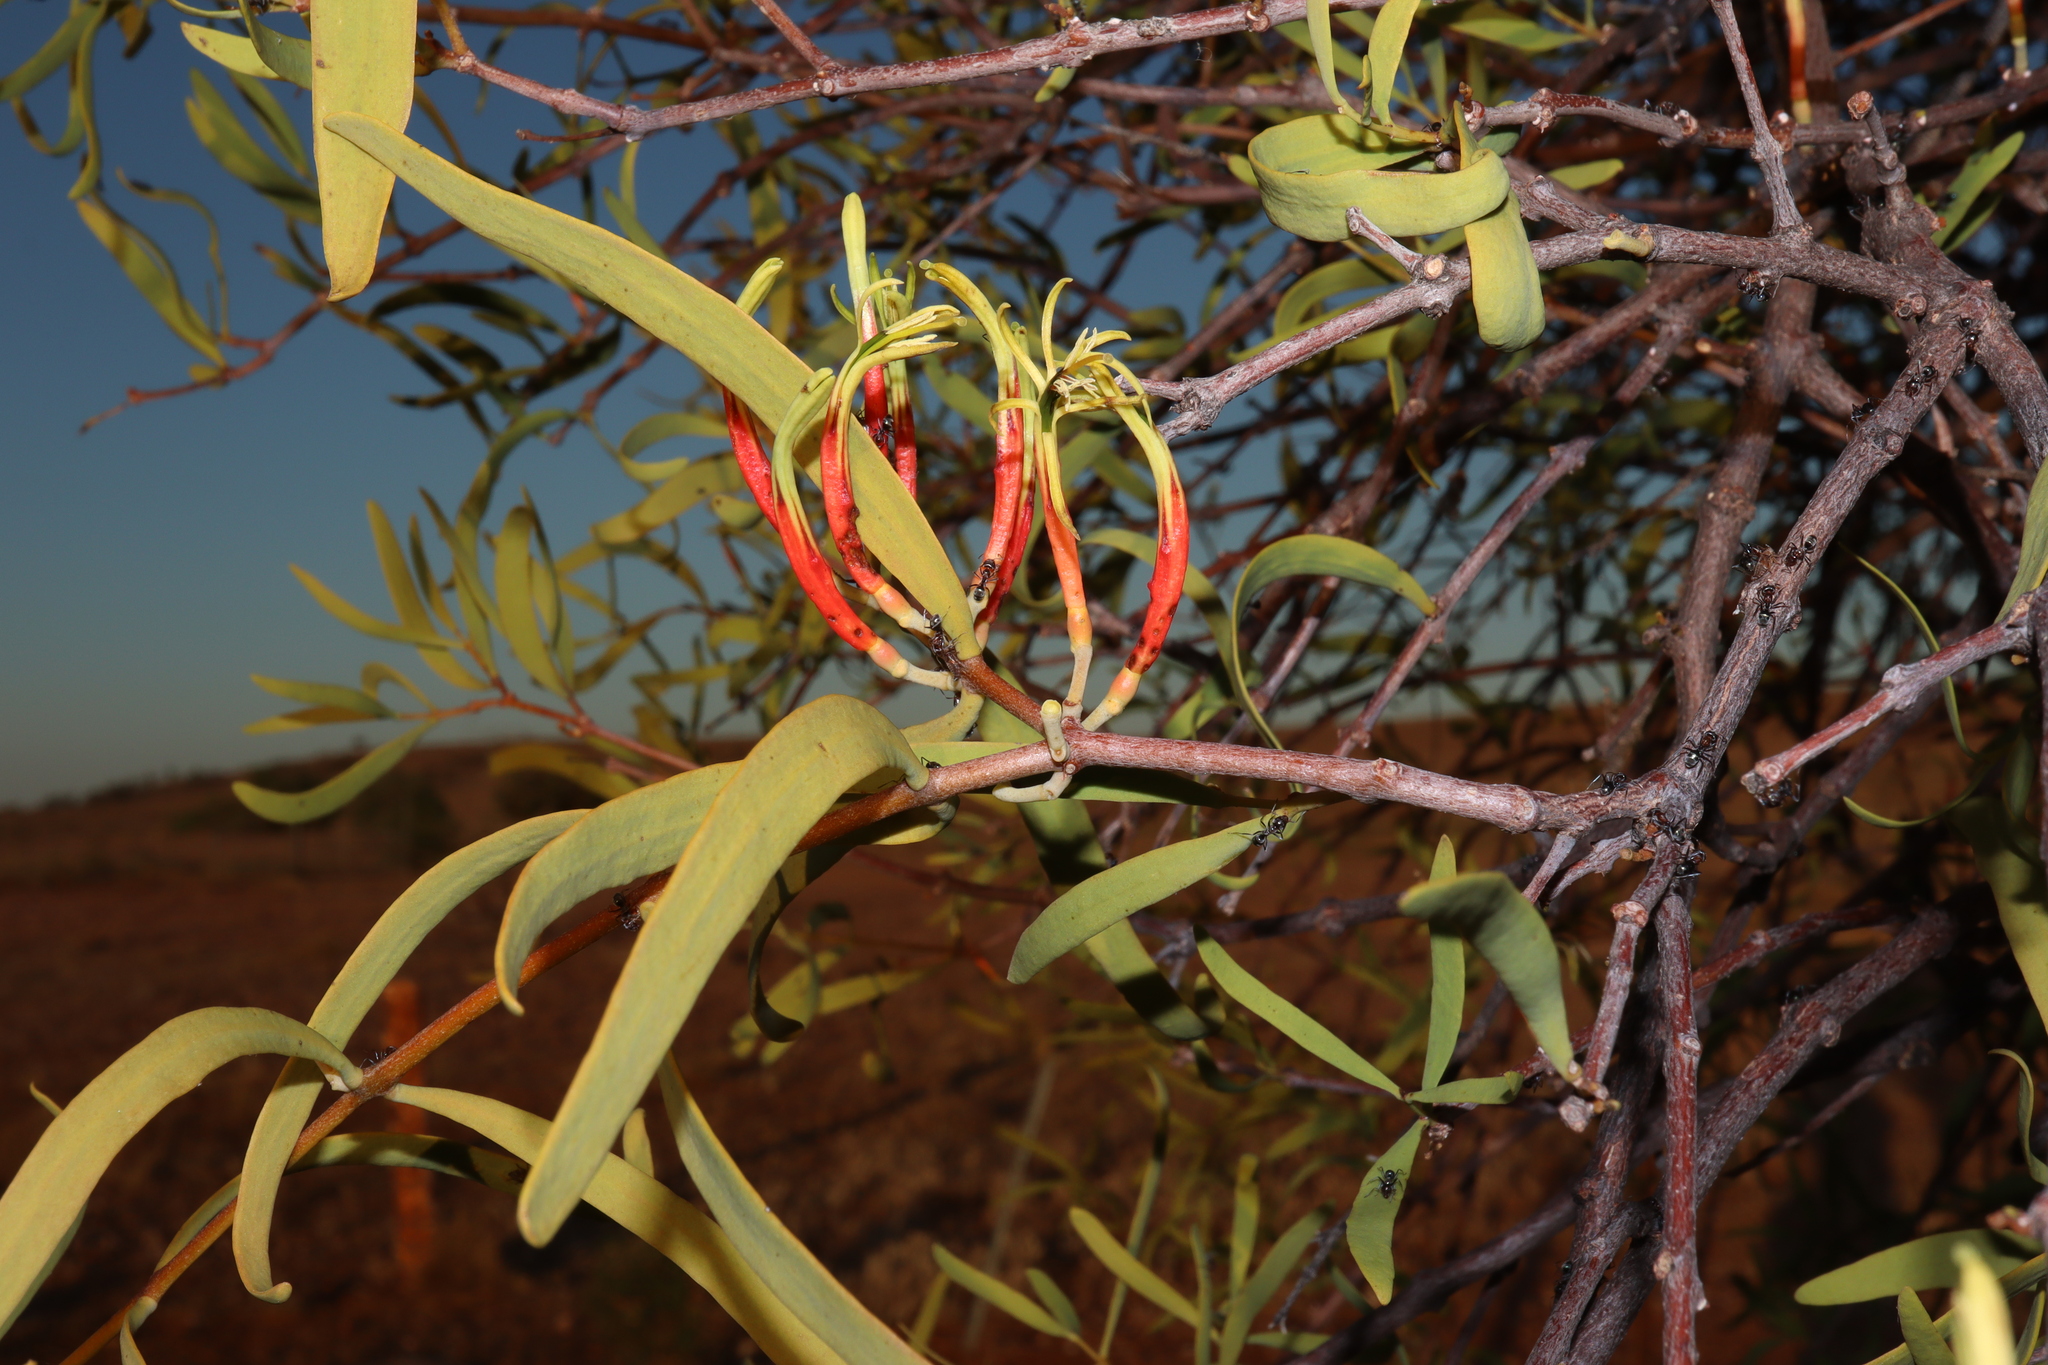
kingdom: Plantae
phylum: Tracheophyta
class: Magnoliopsida
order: Santalales
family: Loranthaceae
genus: Lysiana
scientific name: Lysiana exocarpi
